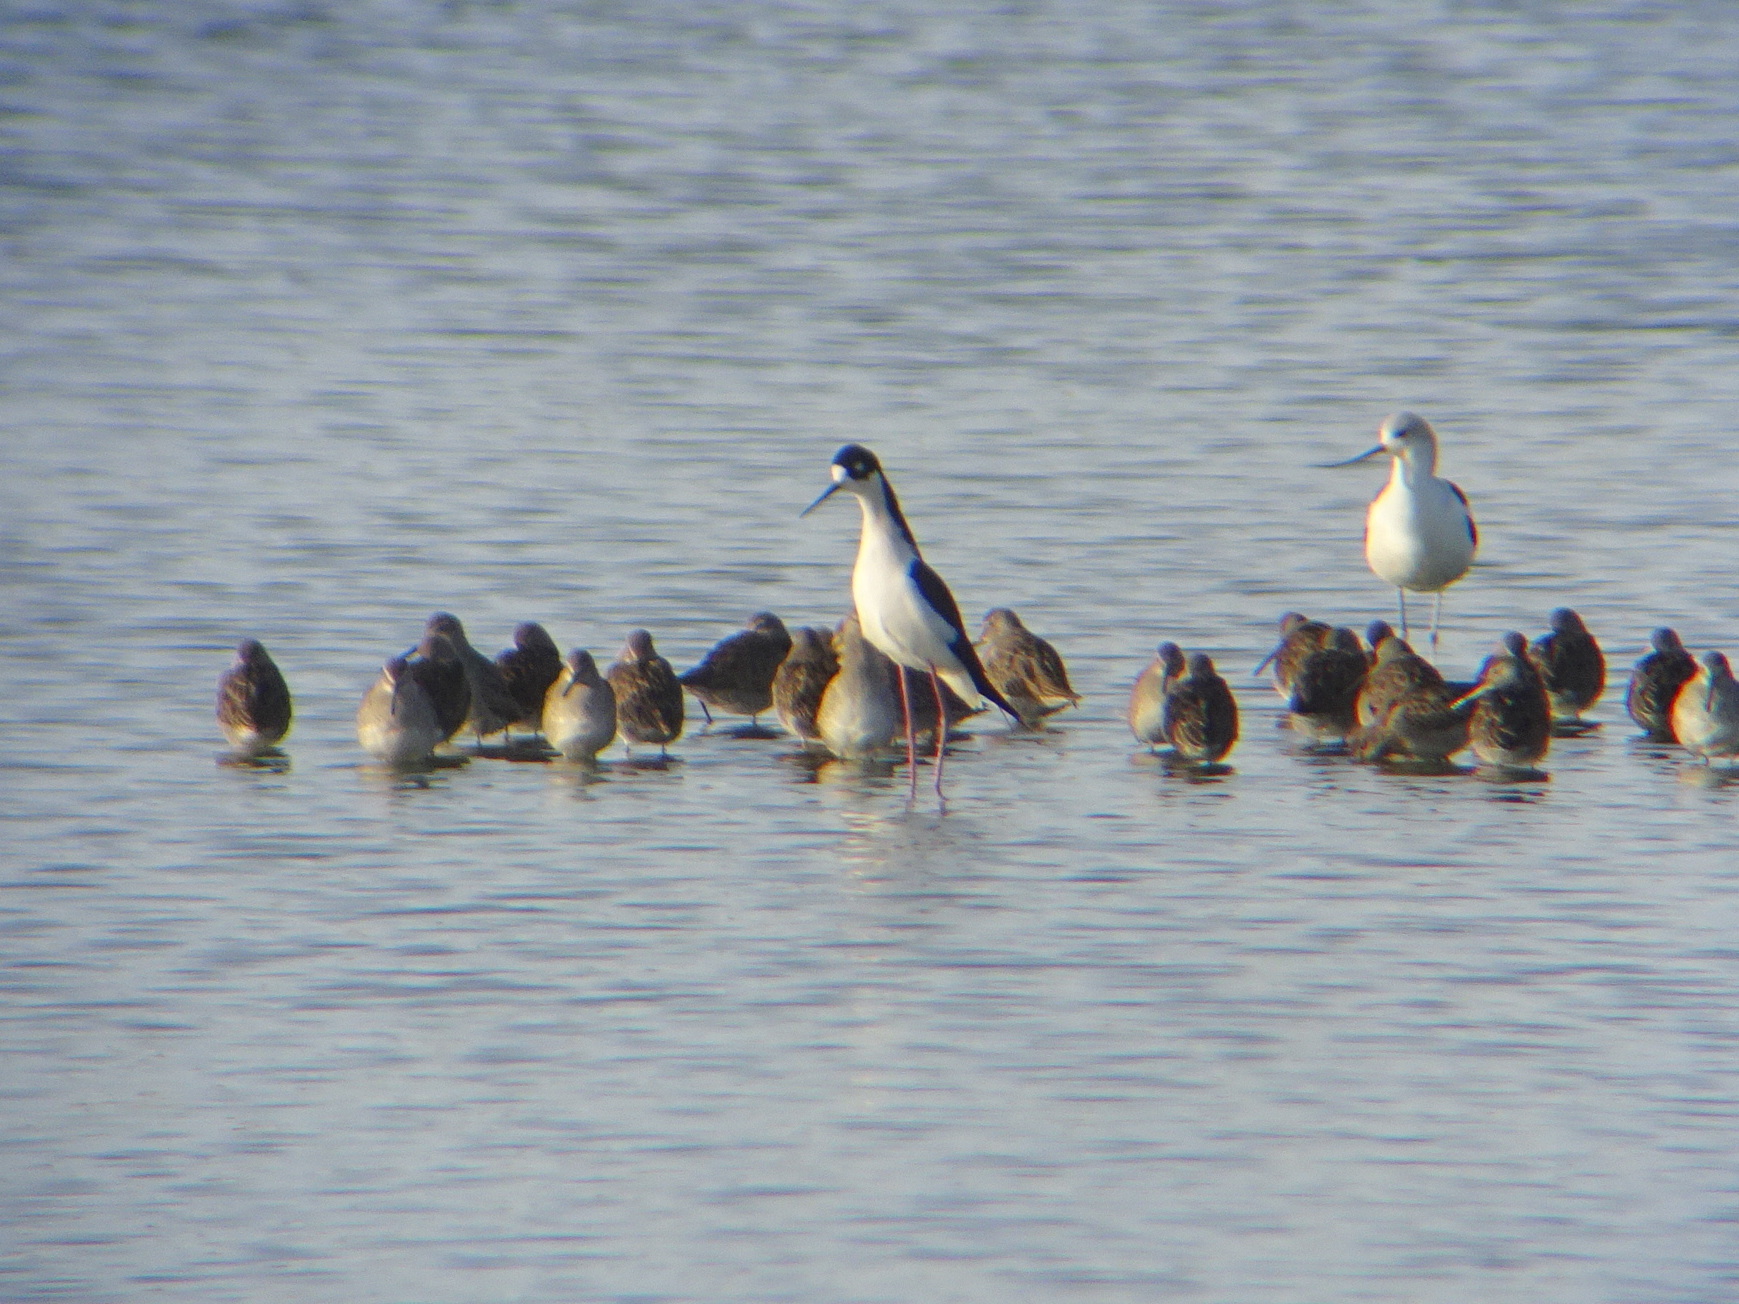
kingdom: Animalia
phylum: Chordata
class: Aves
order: Charadriiformes
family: Recurvirostridae
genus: Himantopus
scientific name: Himantopus mexicanus
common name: Black-necked stilt
